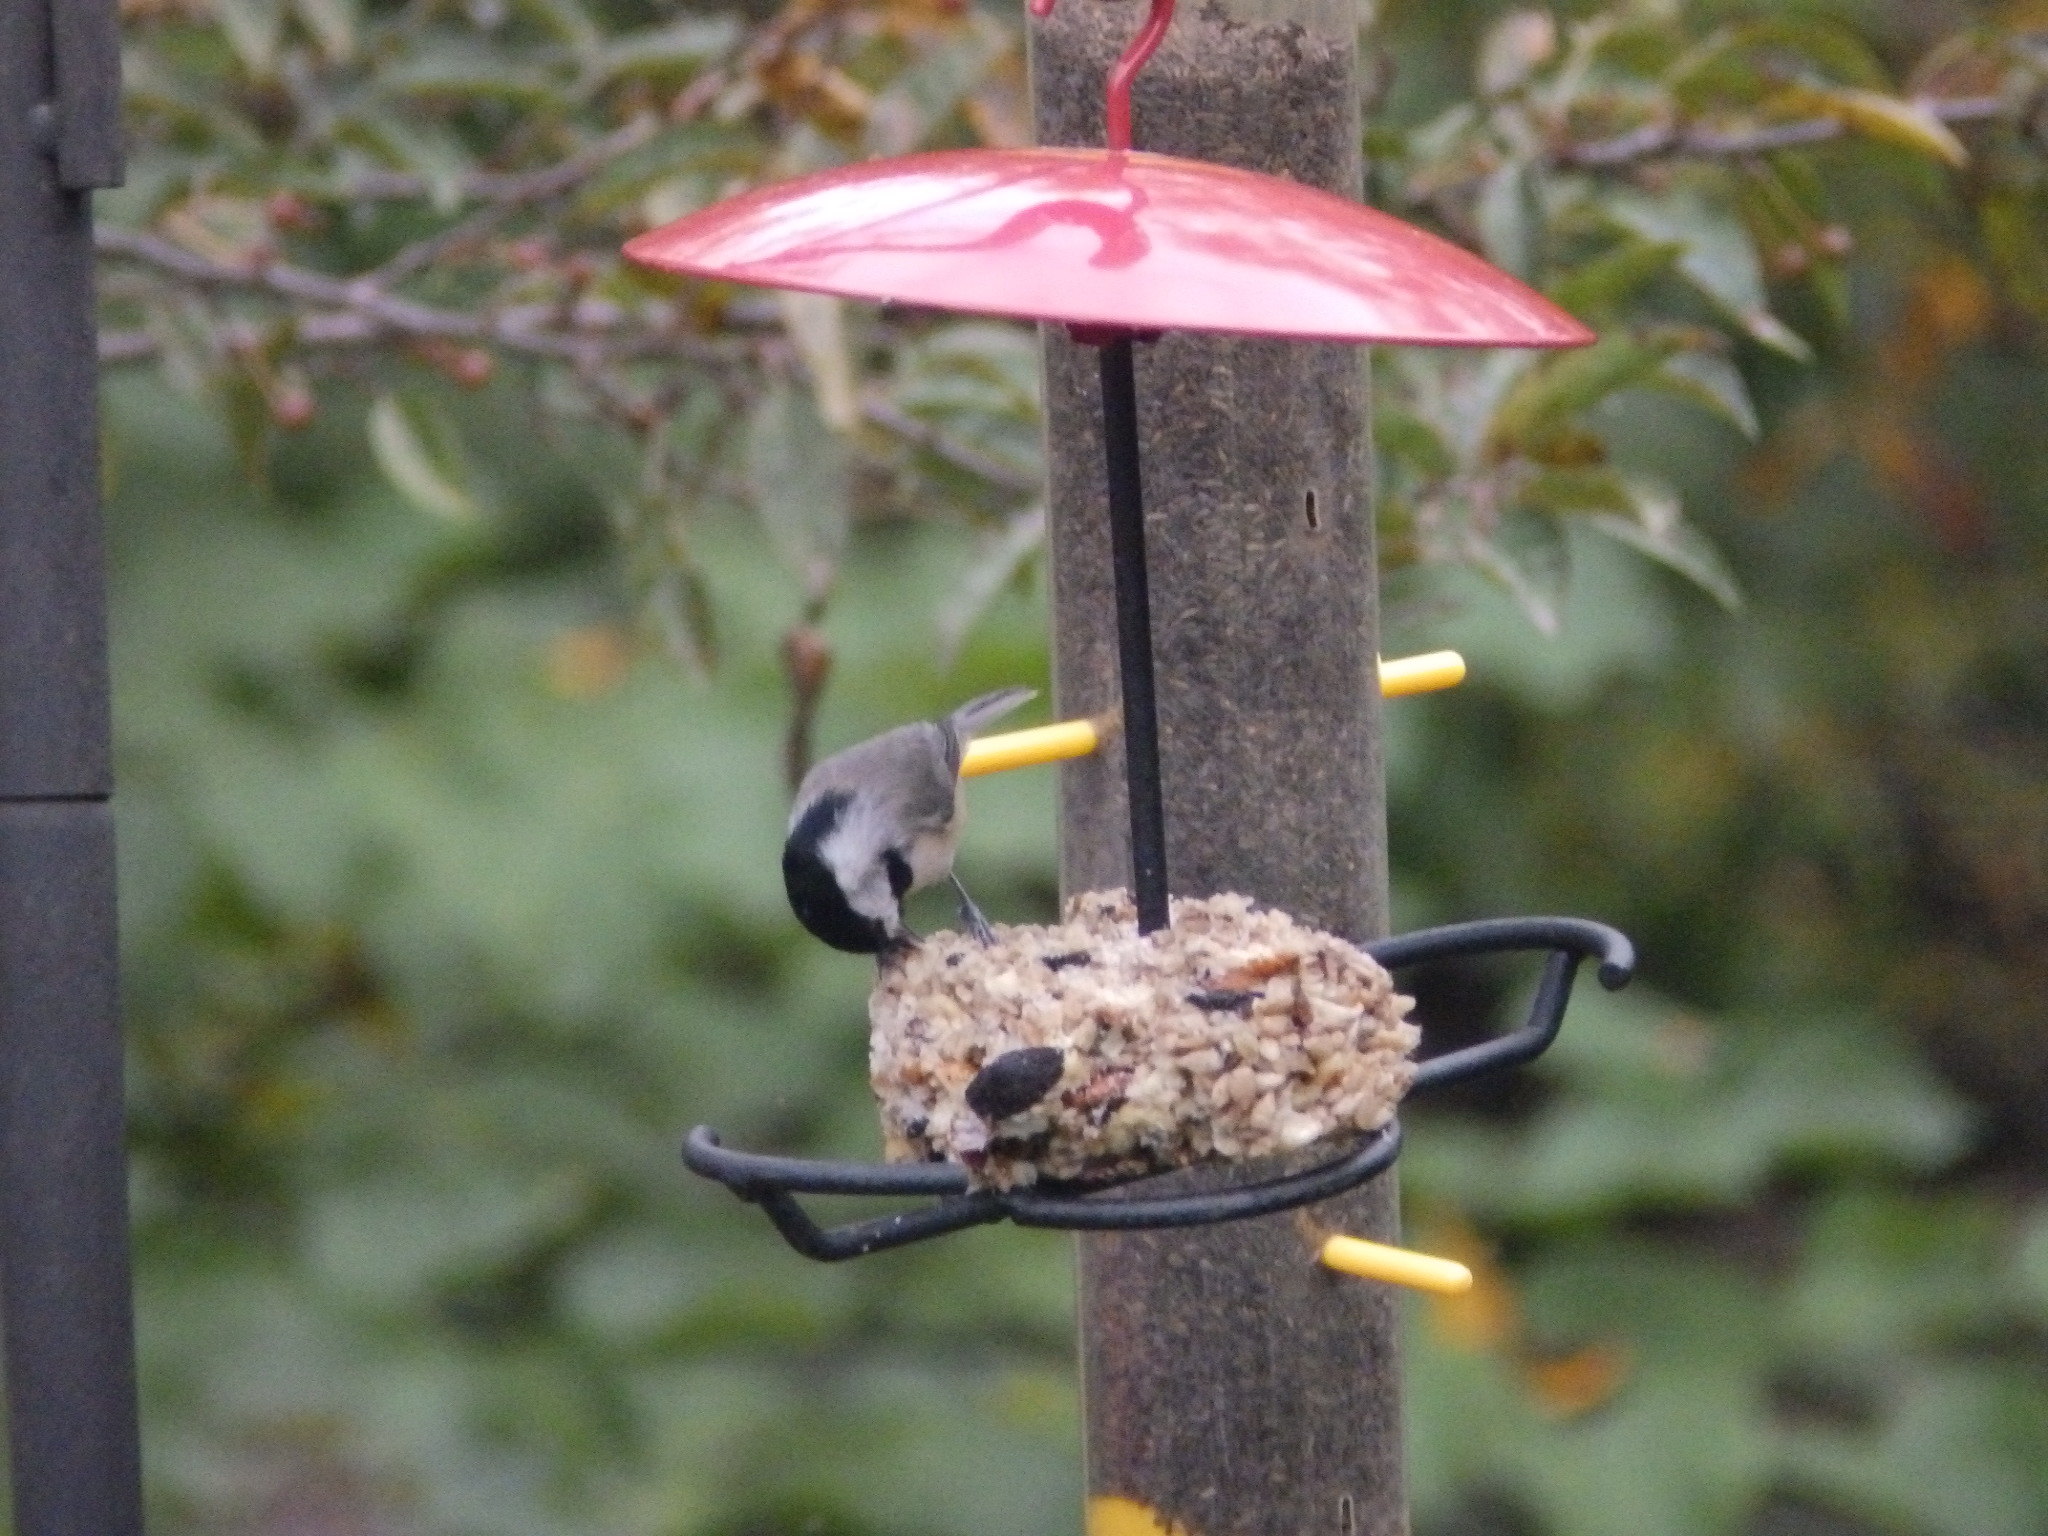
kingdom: Animalia
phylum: Chordata
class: Aves
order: Passeriformes
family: Paridae
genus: Poecile
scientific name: Poecile carolinensis
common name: Carolina chickadee
